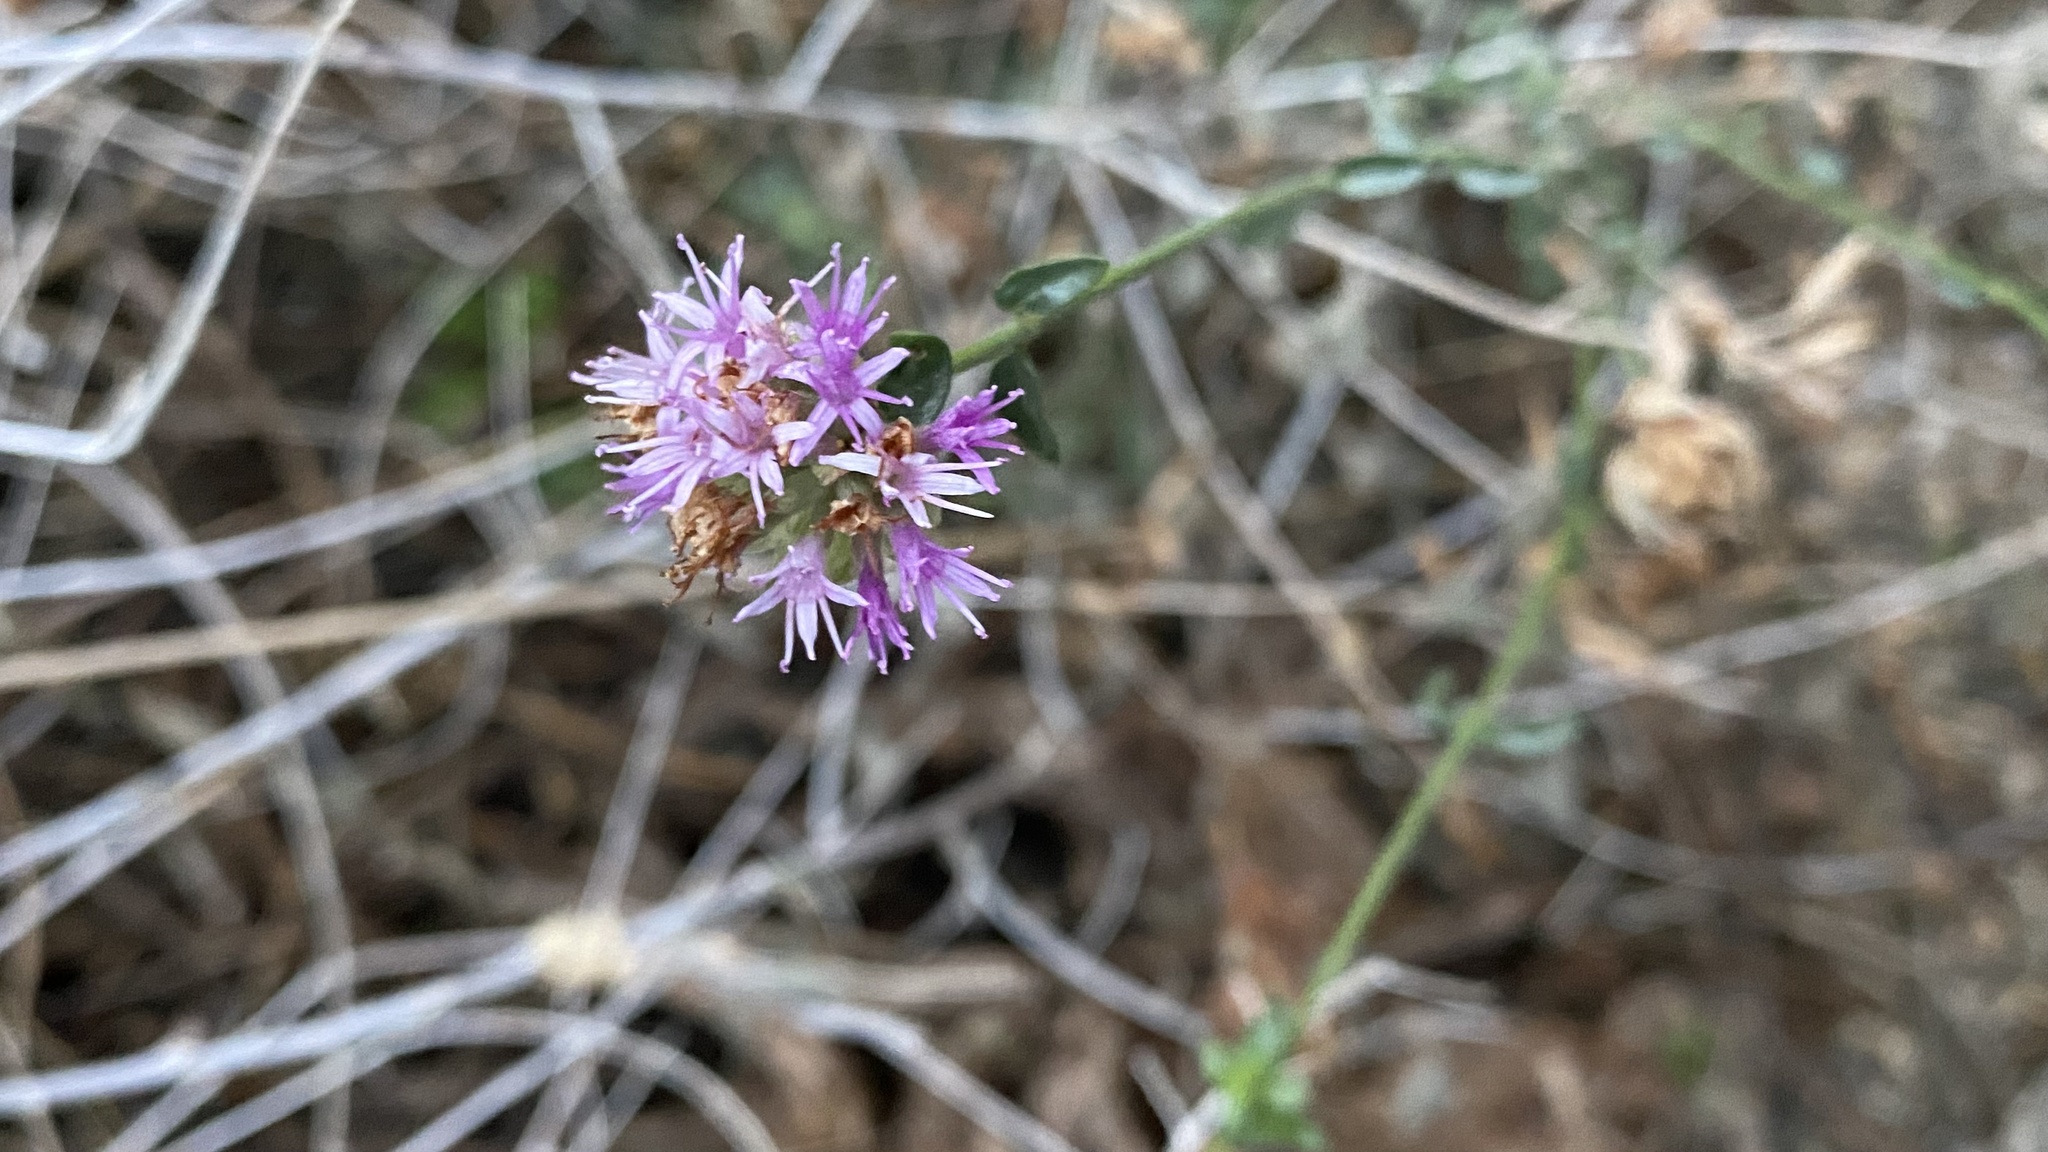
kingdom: Plantae
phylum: Tracheophyta
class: Magnoliopsida
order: Lamiales
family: Lamiaceae
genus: Monardella
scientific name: Monardella robisonii
